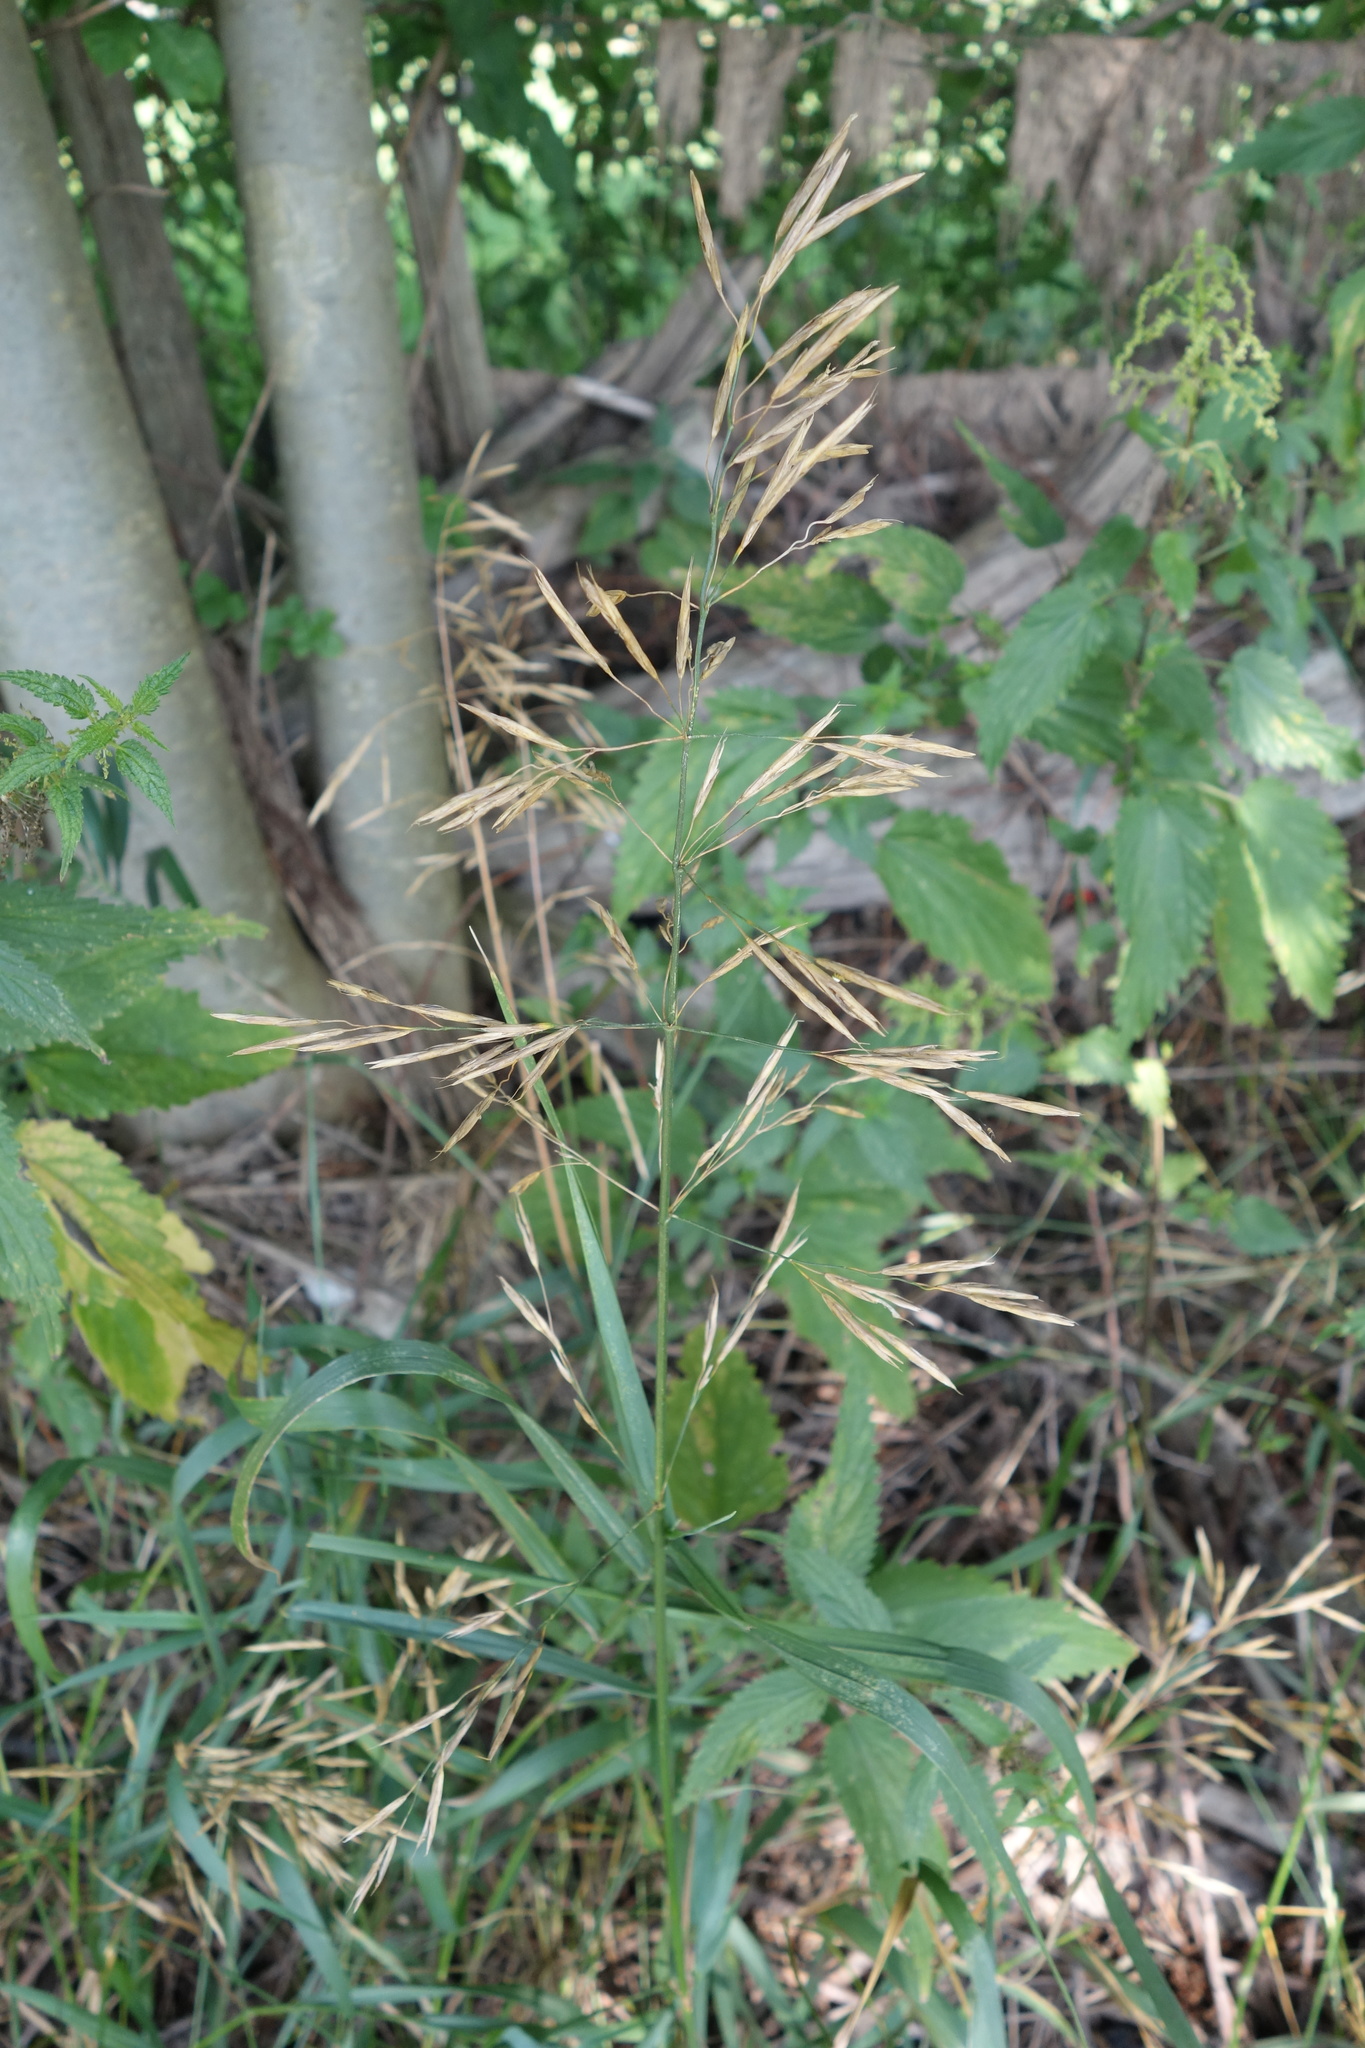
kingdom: Plantae
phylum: Tracheophyta
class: Liliopsida
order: Poales
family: Poaceae
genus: Bromus
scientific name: Bromus inermis
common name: Smooth brome
